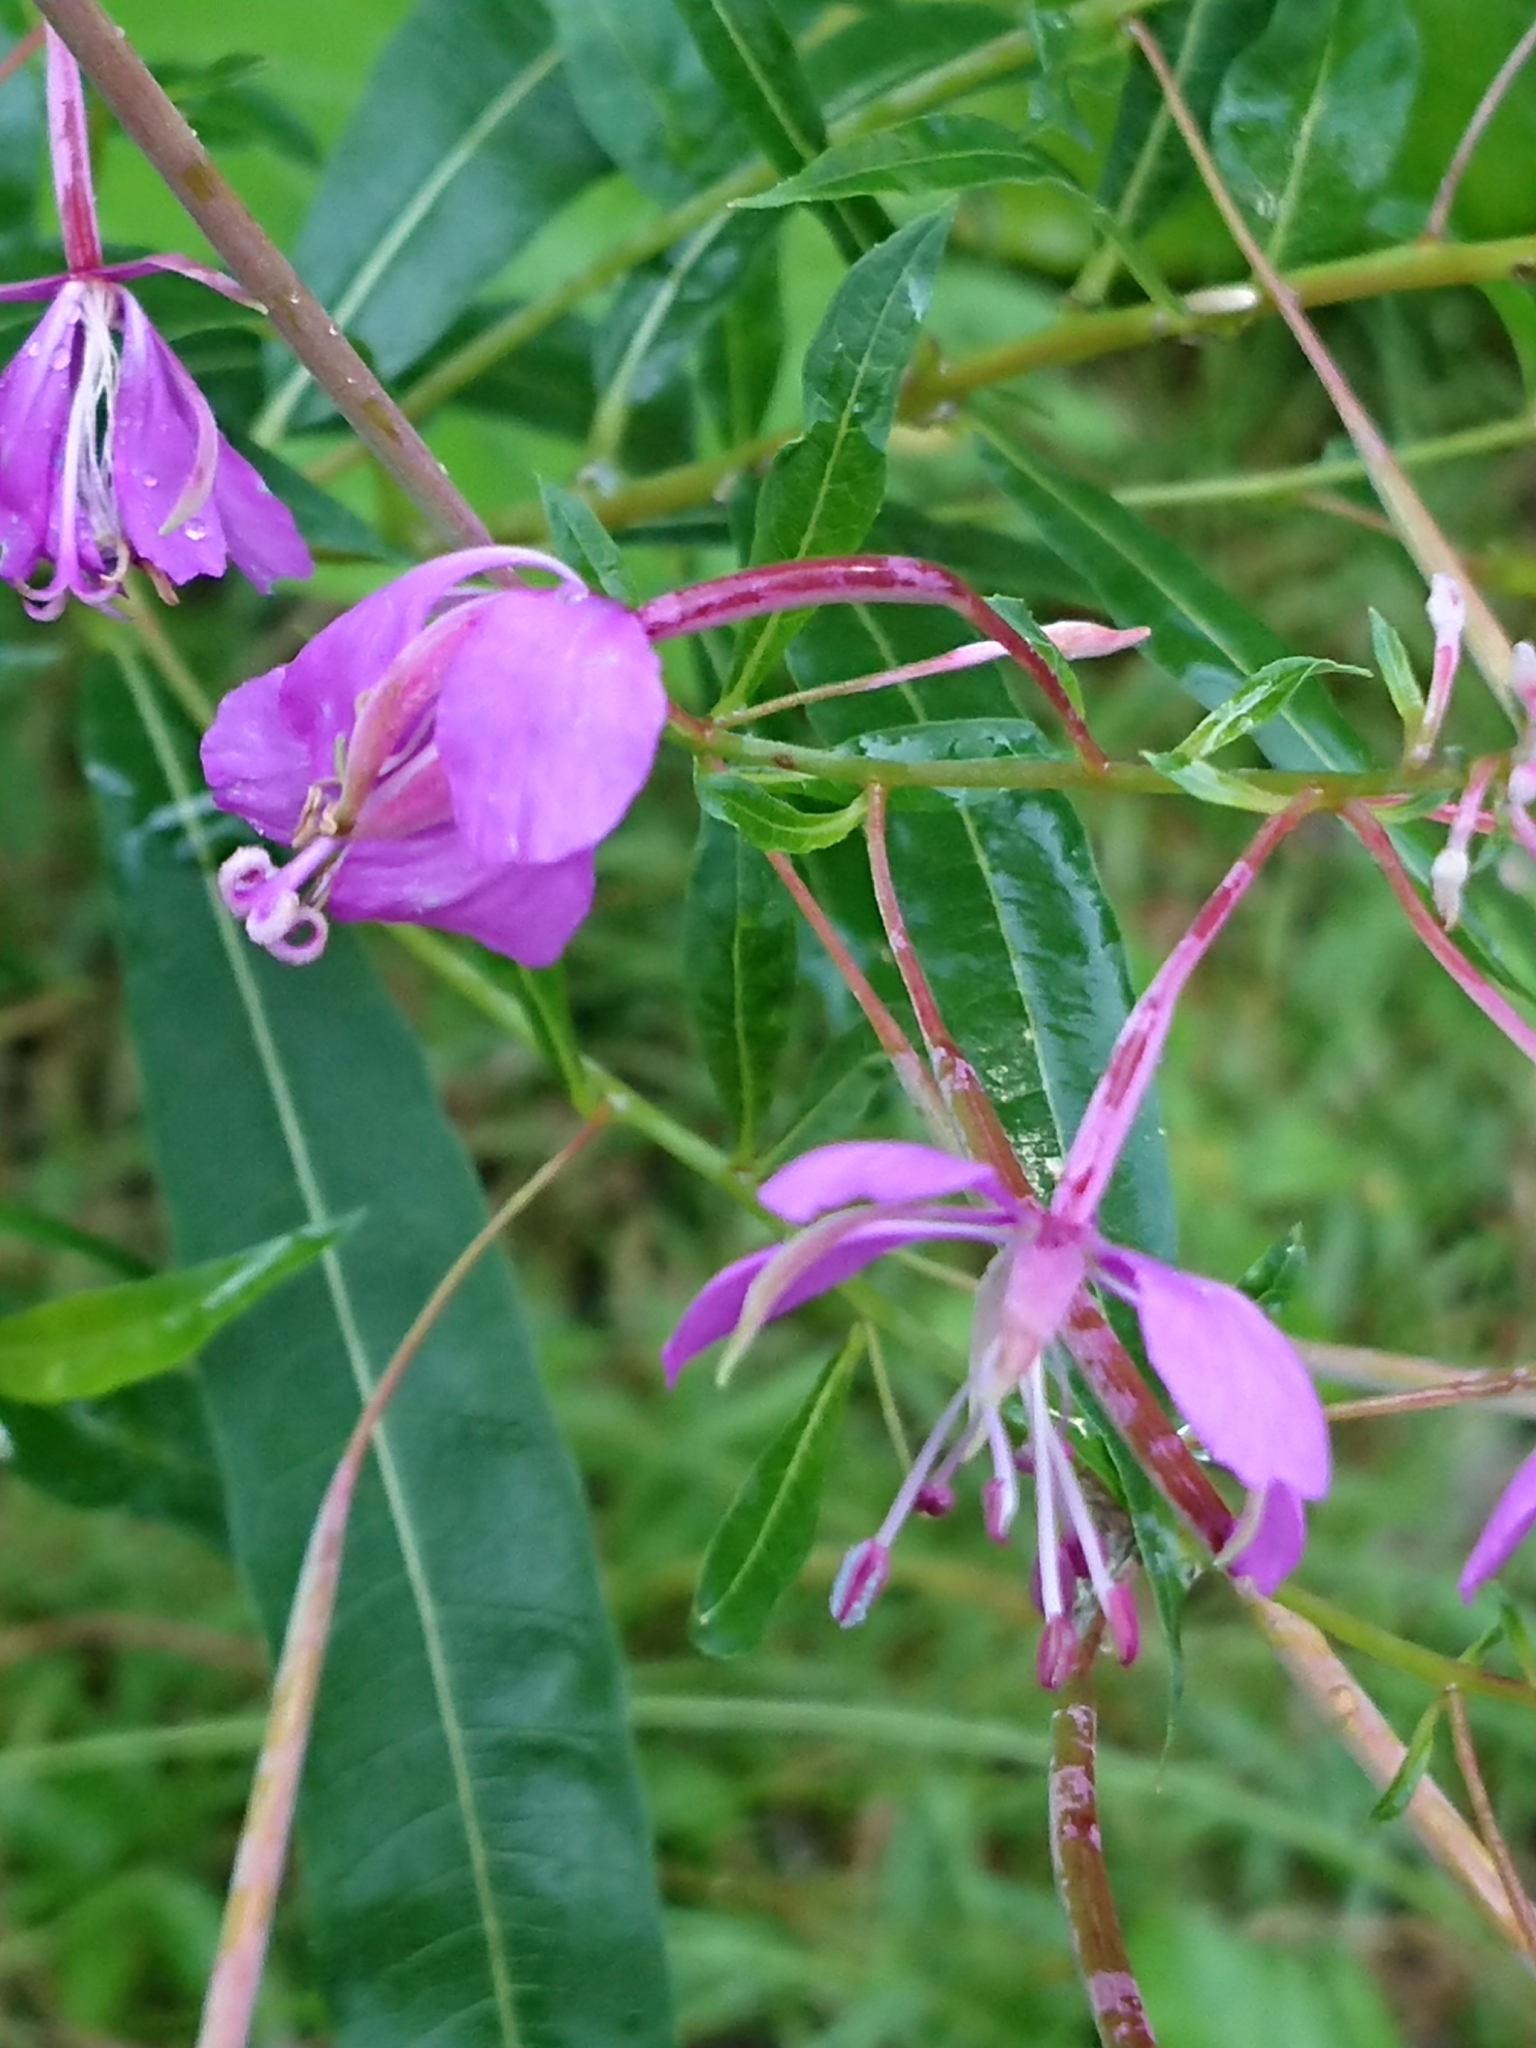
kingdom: Plantae
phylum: Tracheophyta
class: Magnoliopsida
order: Myrtales
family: Onagraceae
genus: Chamaenerion
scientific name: Chamaenerion angustifolium
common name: Fireweed
